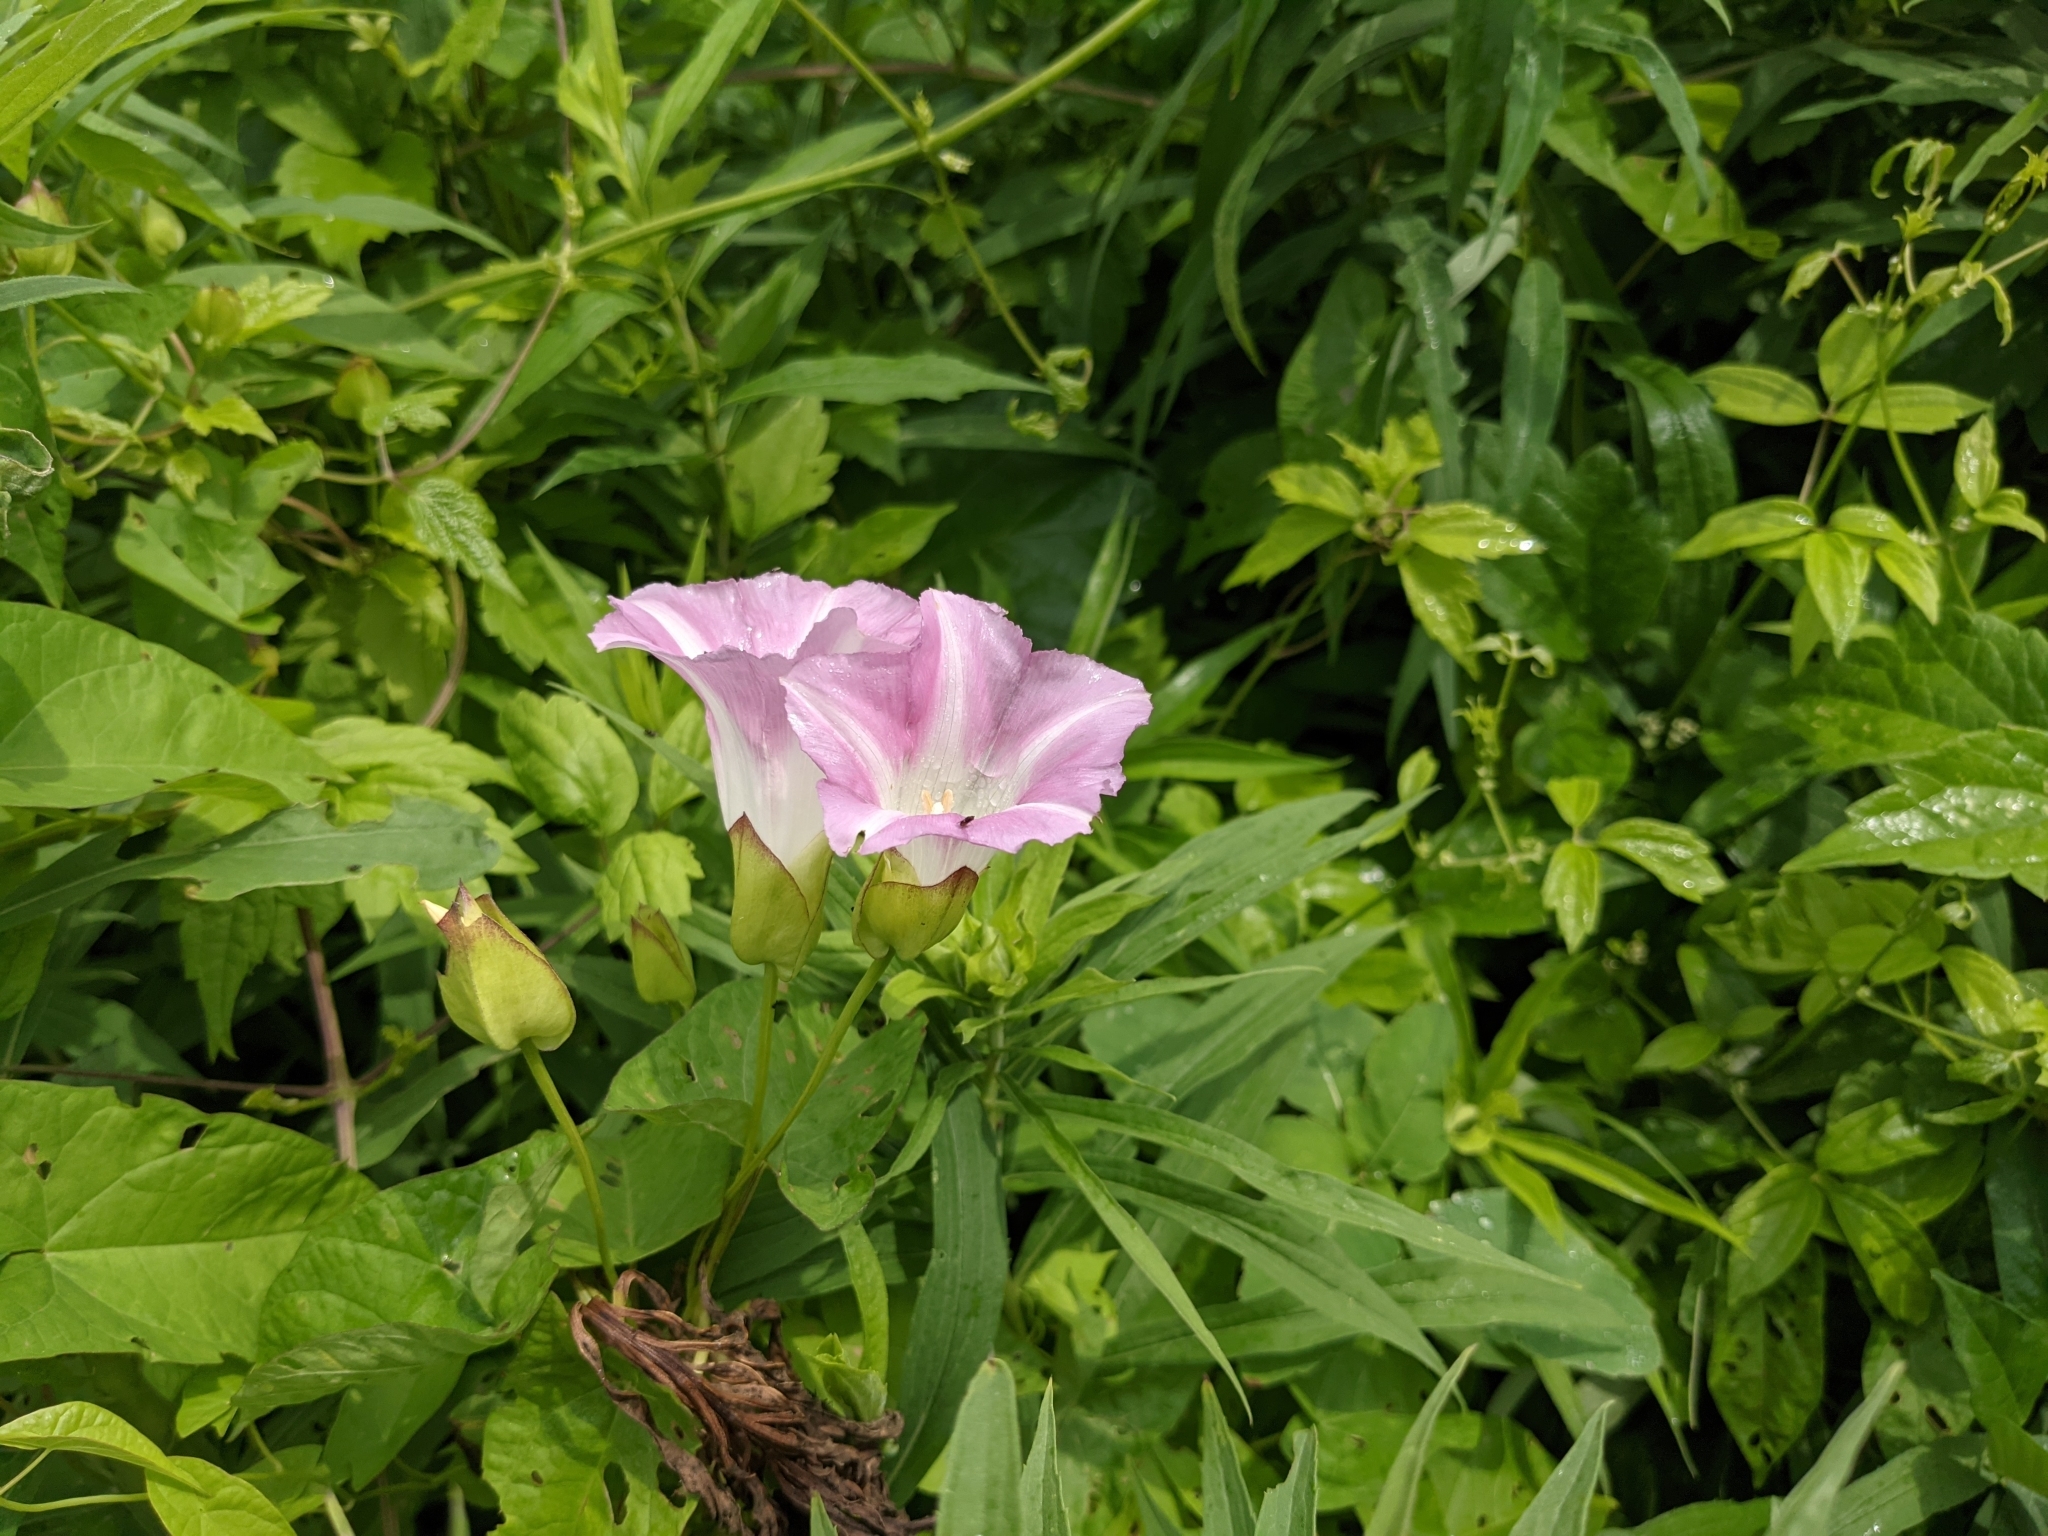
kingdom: Plantae
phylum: Tracheophyta
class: Magnoliopsida
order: Solanales
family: Convolvulaceae
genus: Calystegia
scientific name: Calystegia sepium
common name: Hedge bindweed
